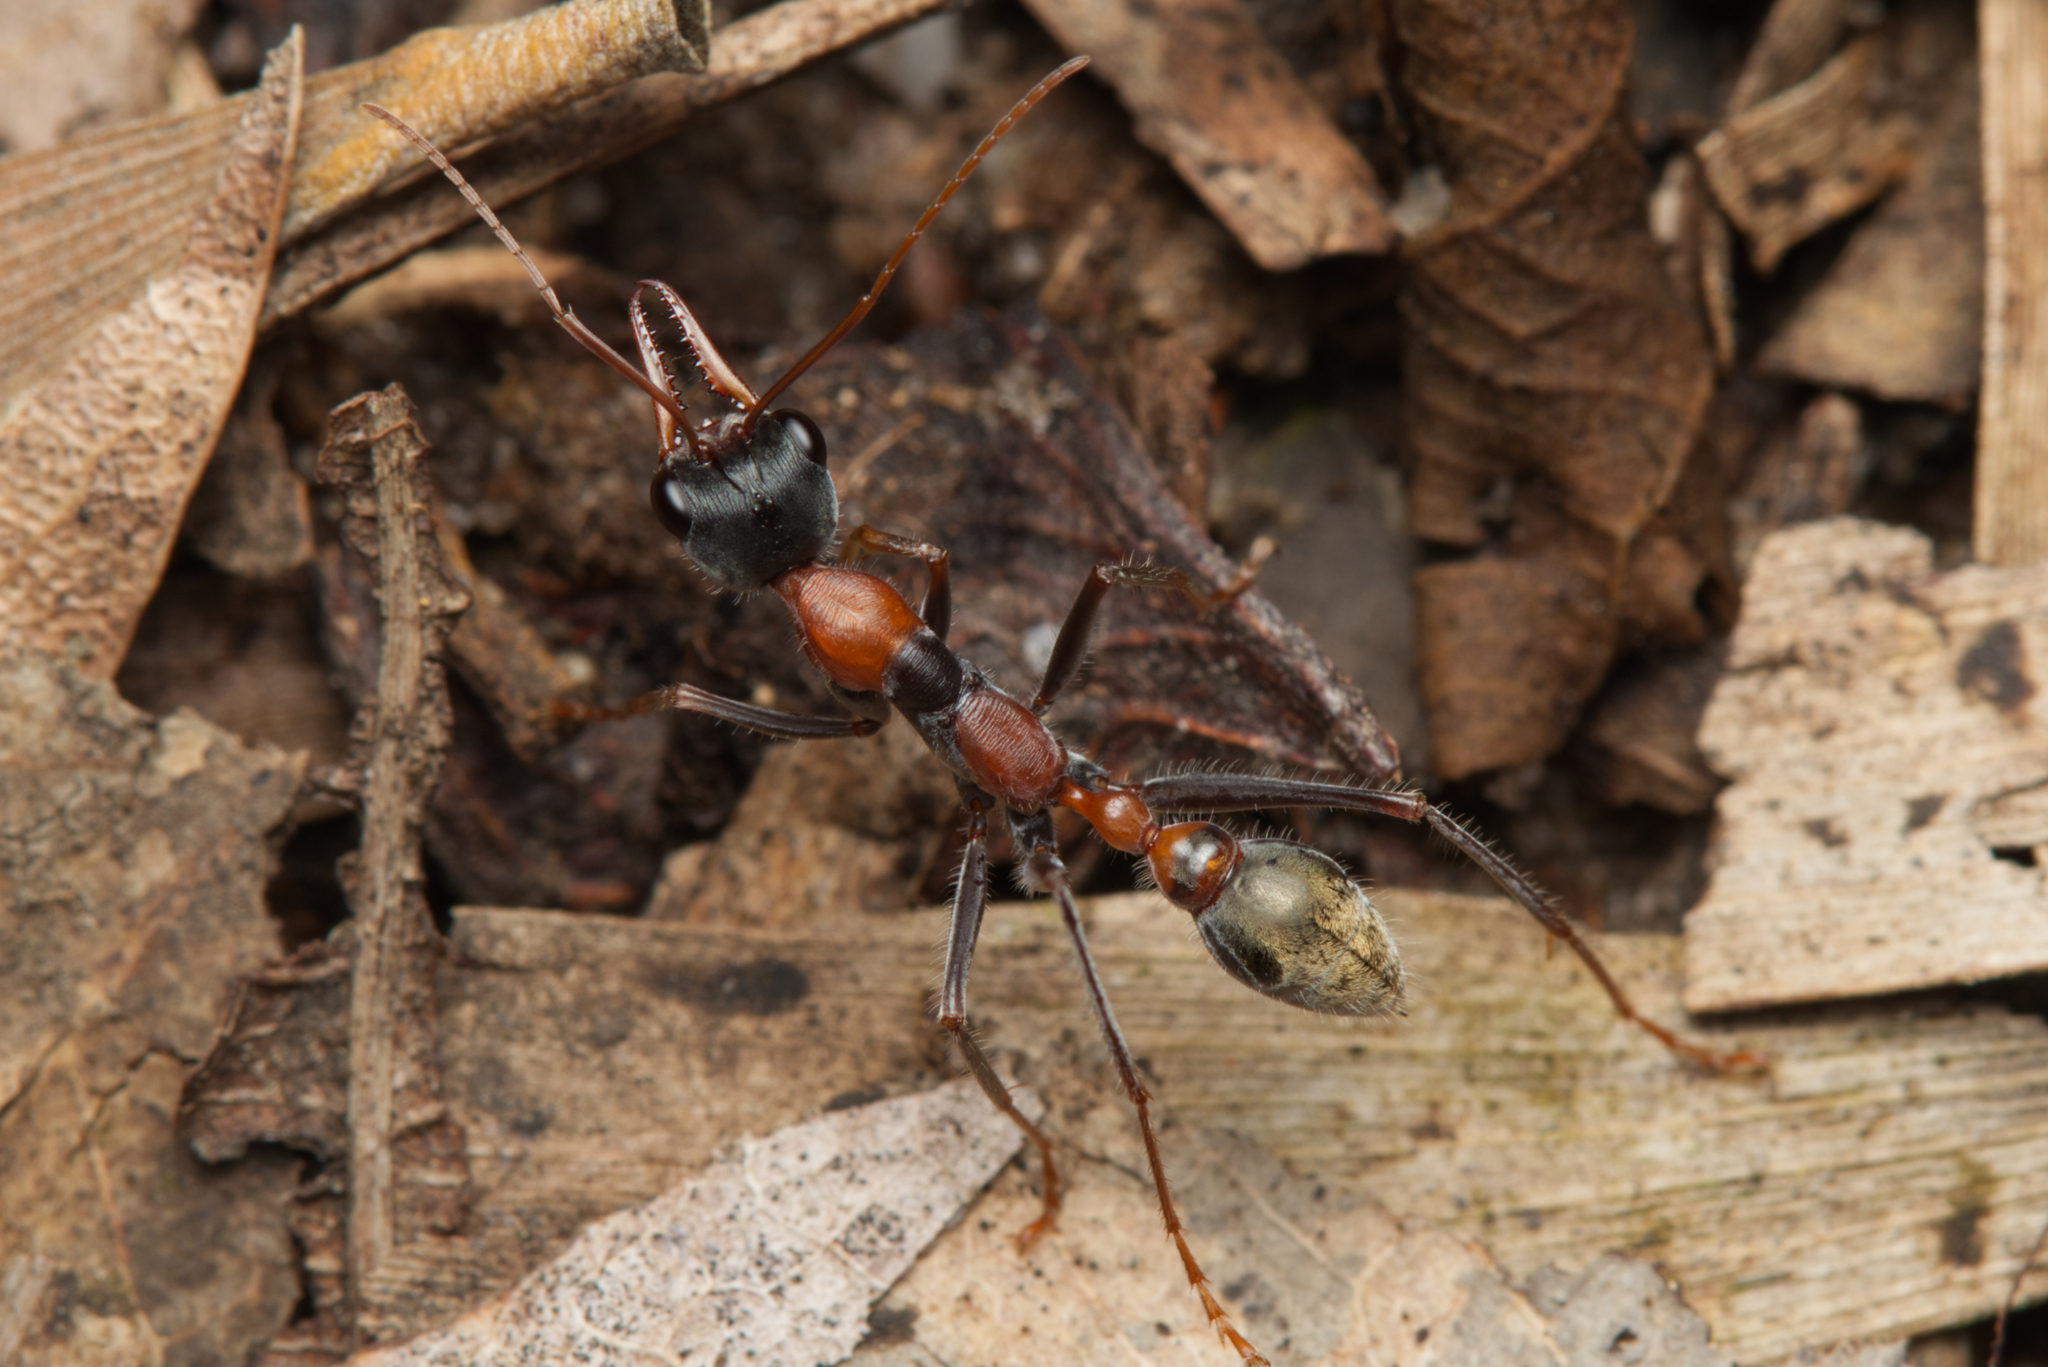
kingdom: Animalia
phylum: Arthropoda
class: Insecta
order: Hymenoptera
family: Formicidae
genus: Myrmecia
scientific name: Myrmecia nigrocincta
